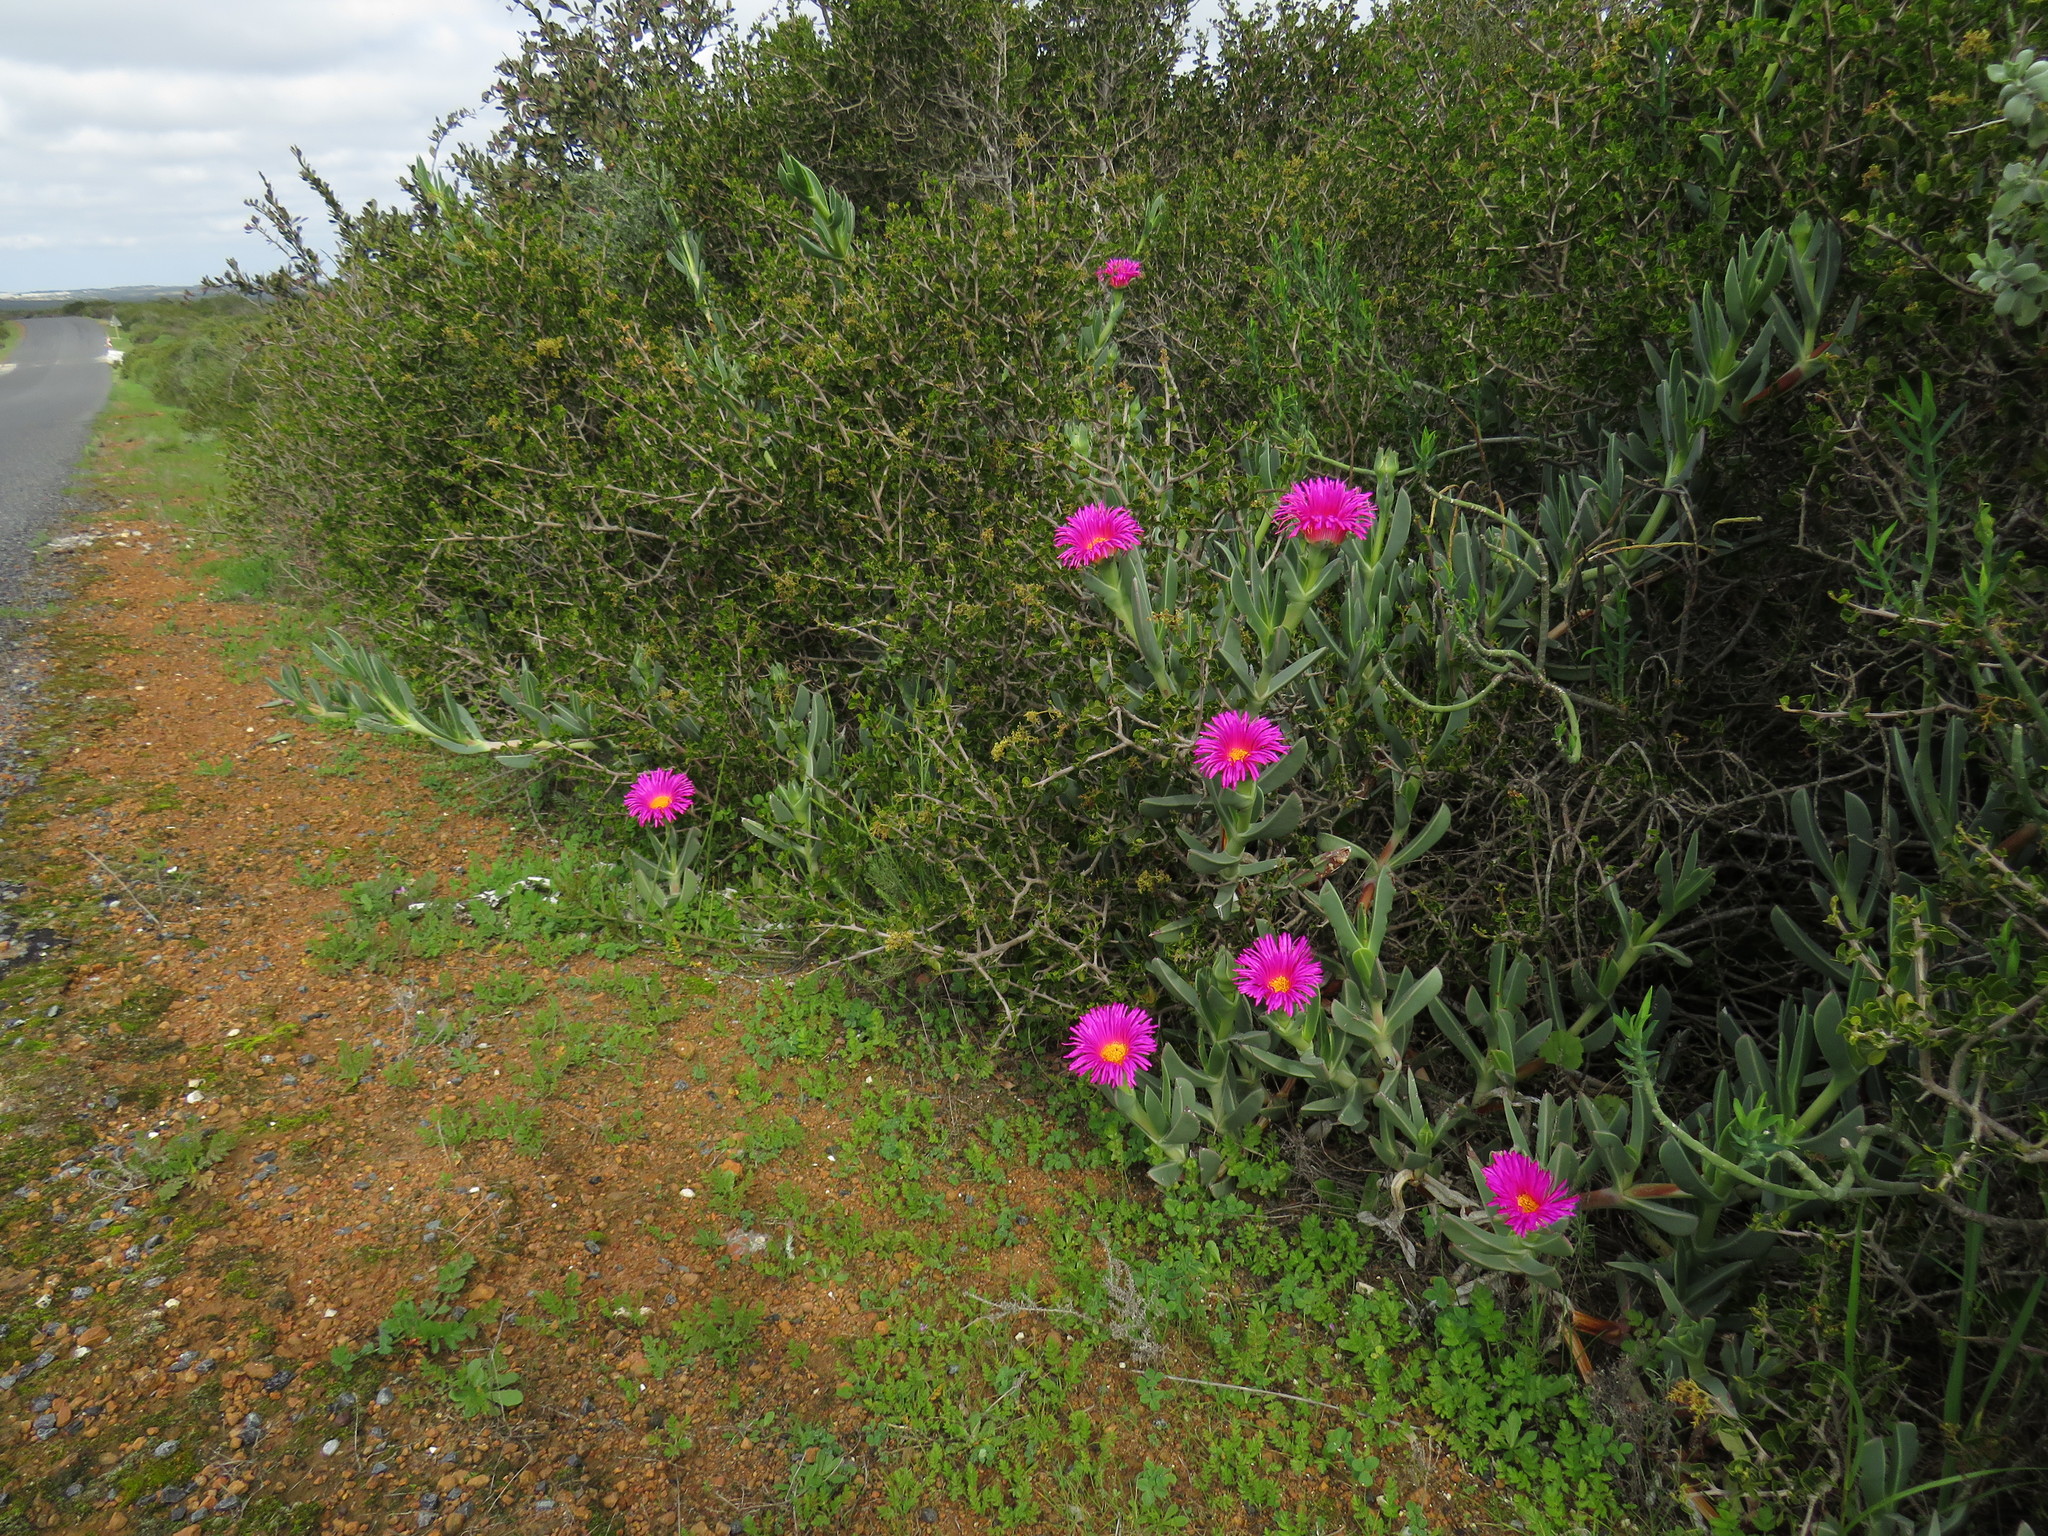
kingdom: Plantae
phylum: Tracheophyta
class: Magnoliopsida
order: Caryophyllales
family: Aizoaceae
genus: Carpobrotus
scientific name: Carpobrotus quadrifidus
